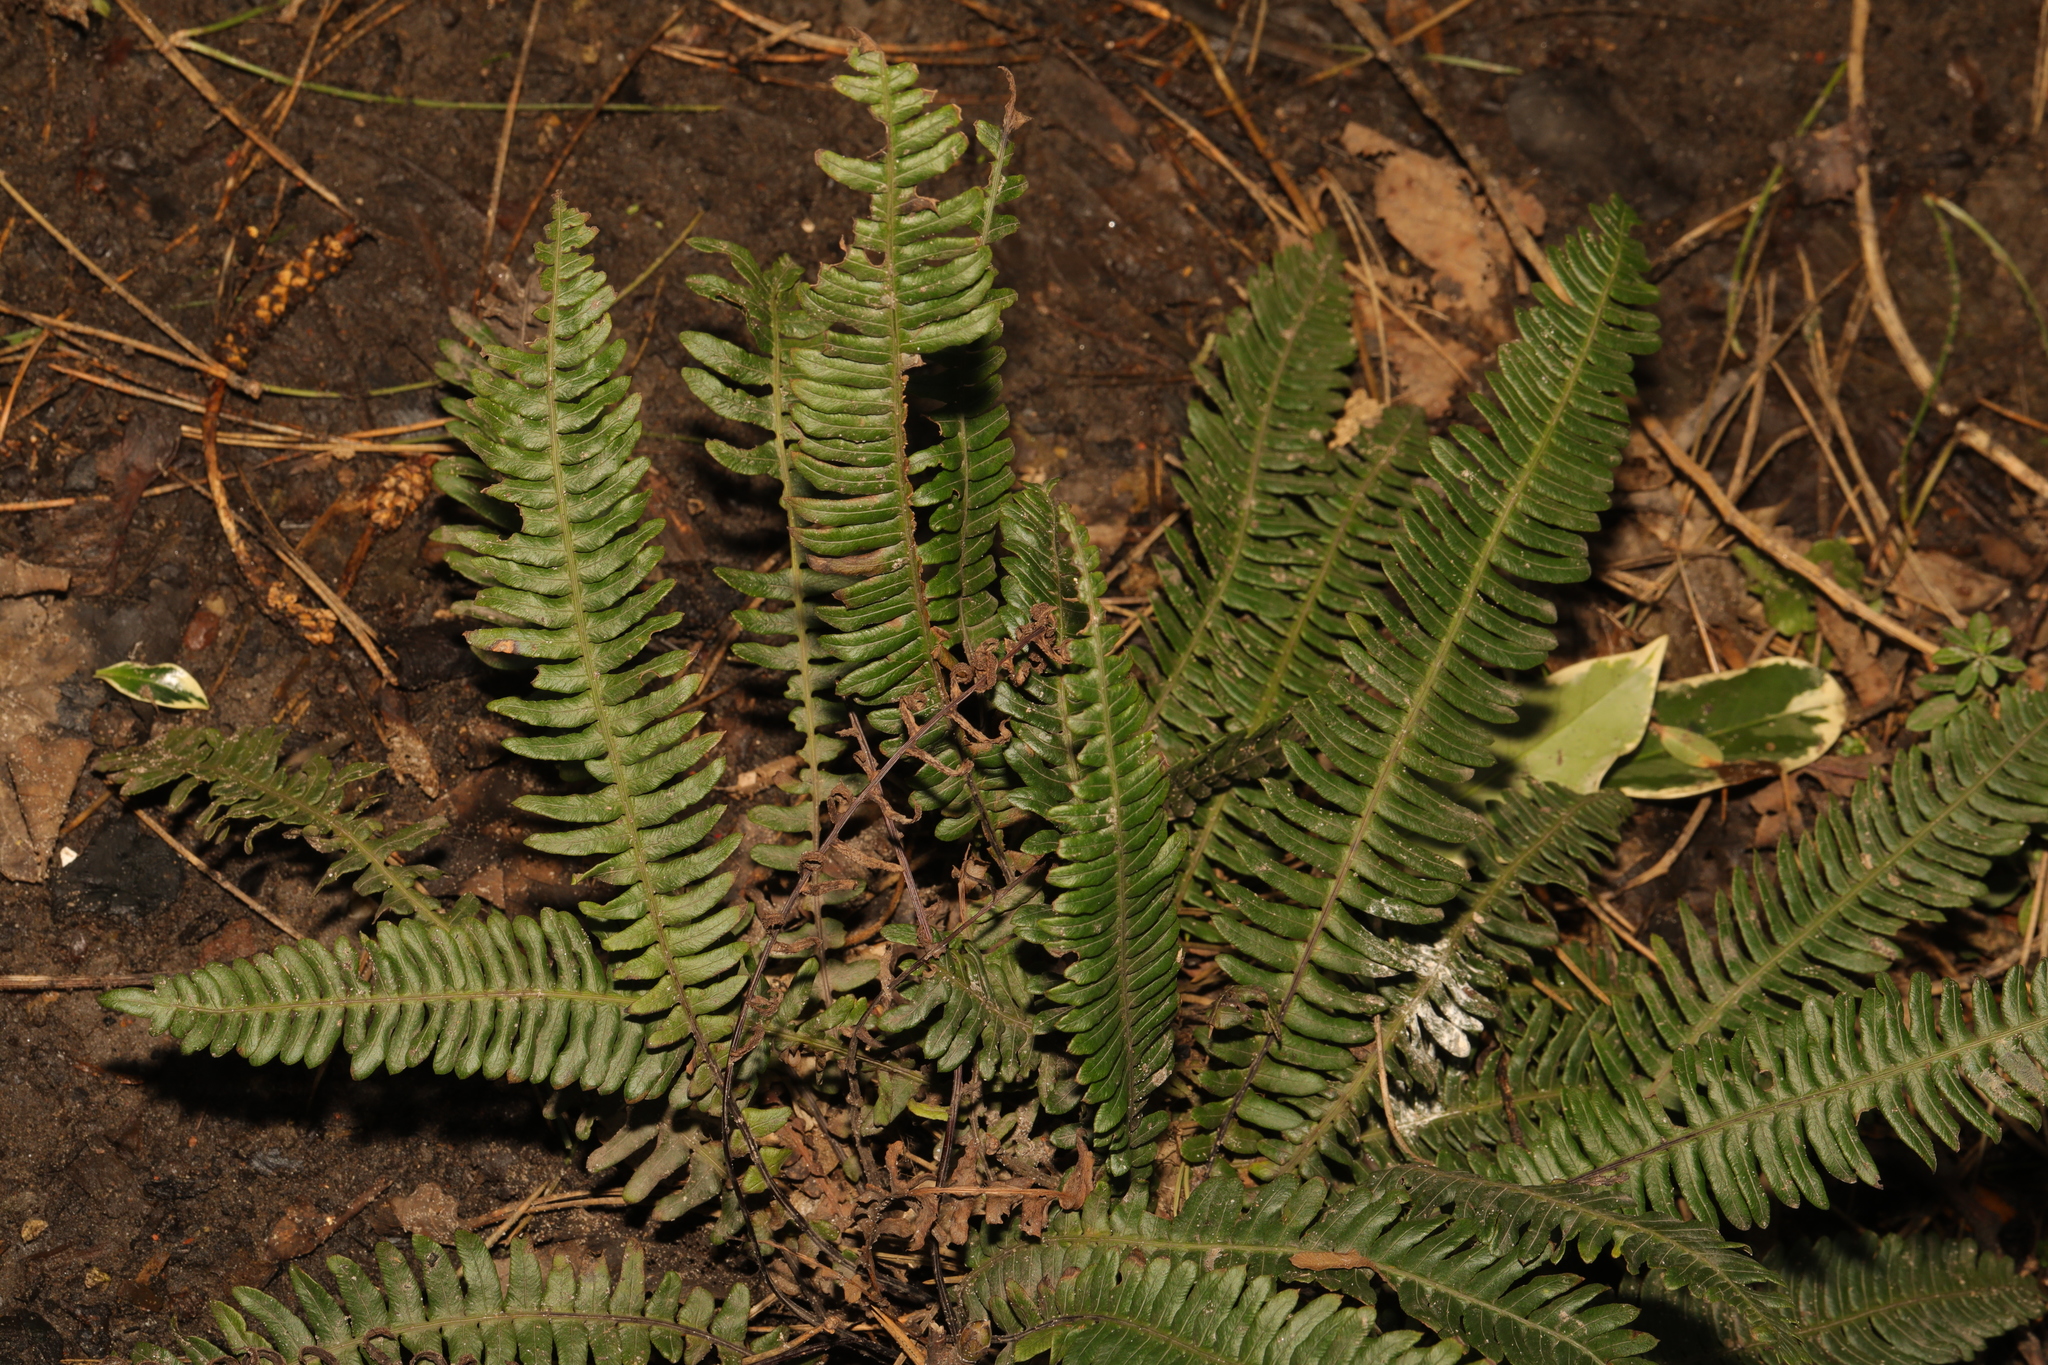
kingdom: Plantae
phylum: Tracheophyta
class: Polypodiopsida
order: Polypodiales
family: Blechnaceae
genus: Struthiopteris
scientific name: Struthiopteris spicant
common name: Deer fern
